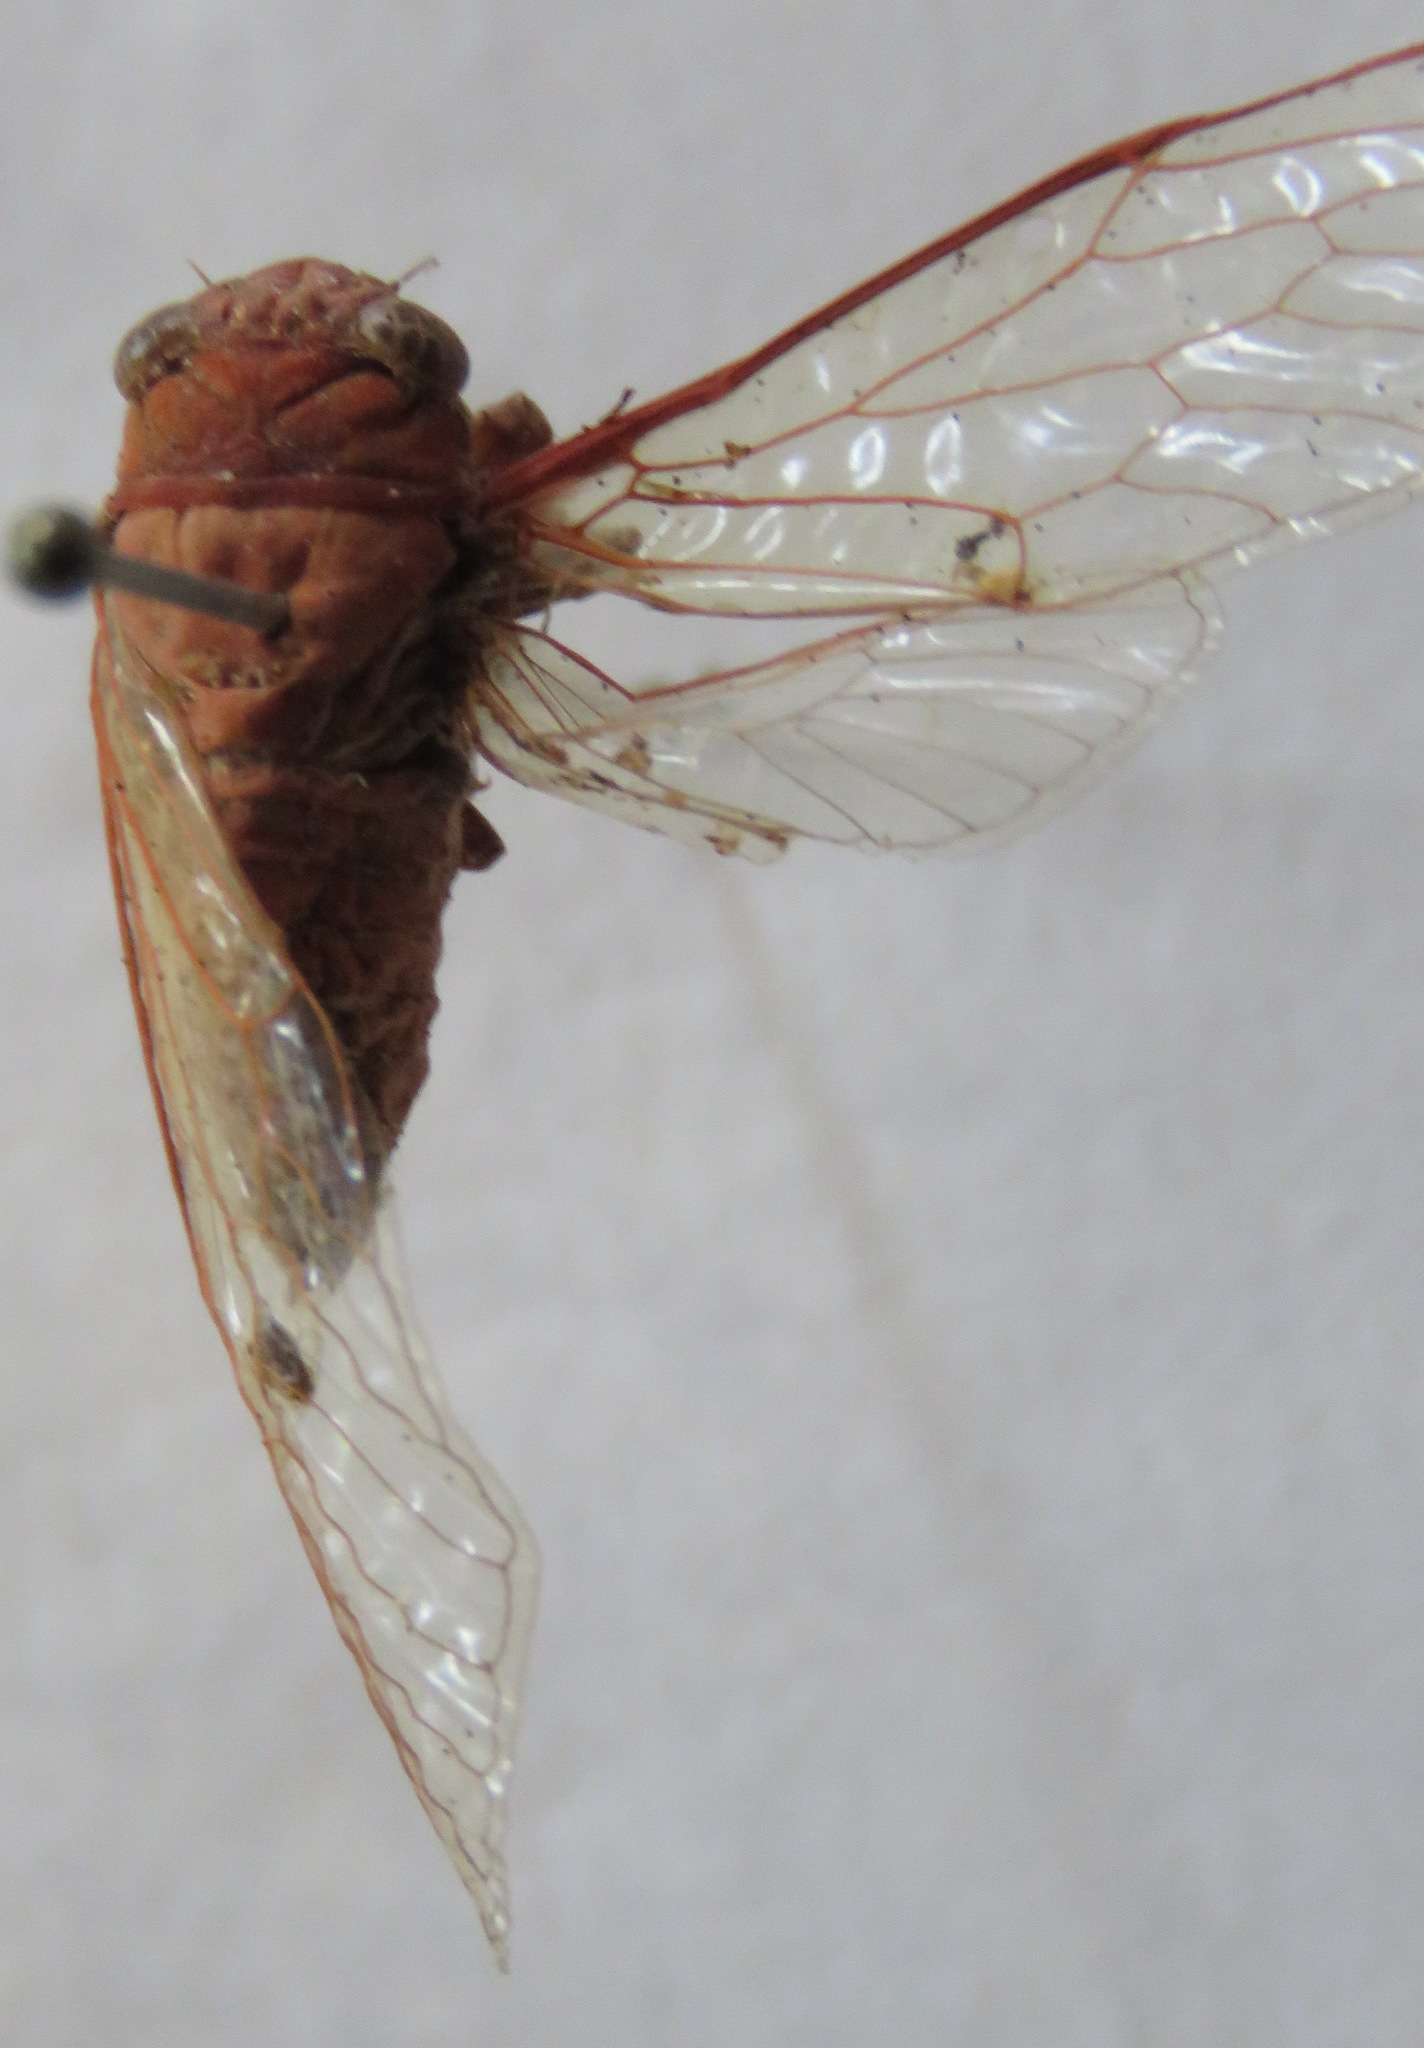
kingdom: Animalia
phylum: Arthropoda
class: Insecta
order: Hemiptera
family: Cicadidae
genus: Herrera
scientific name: Herrera coyamensis
